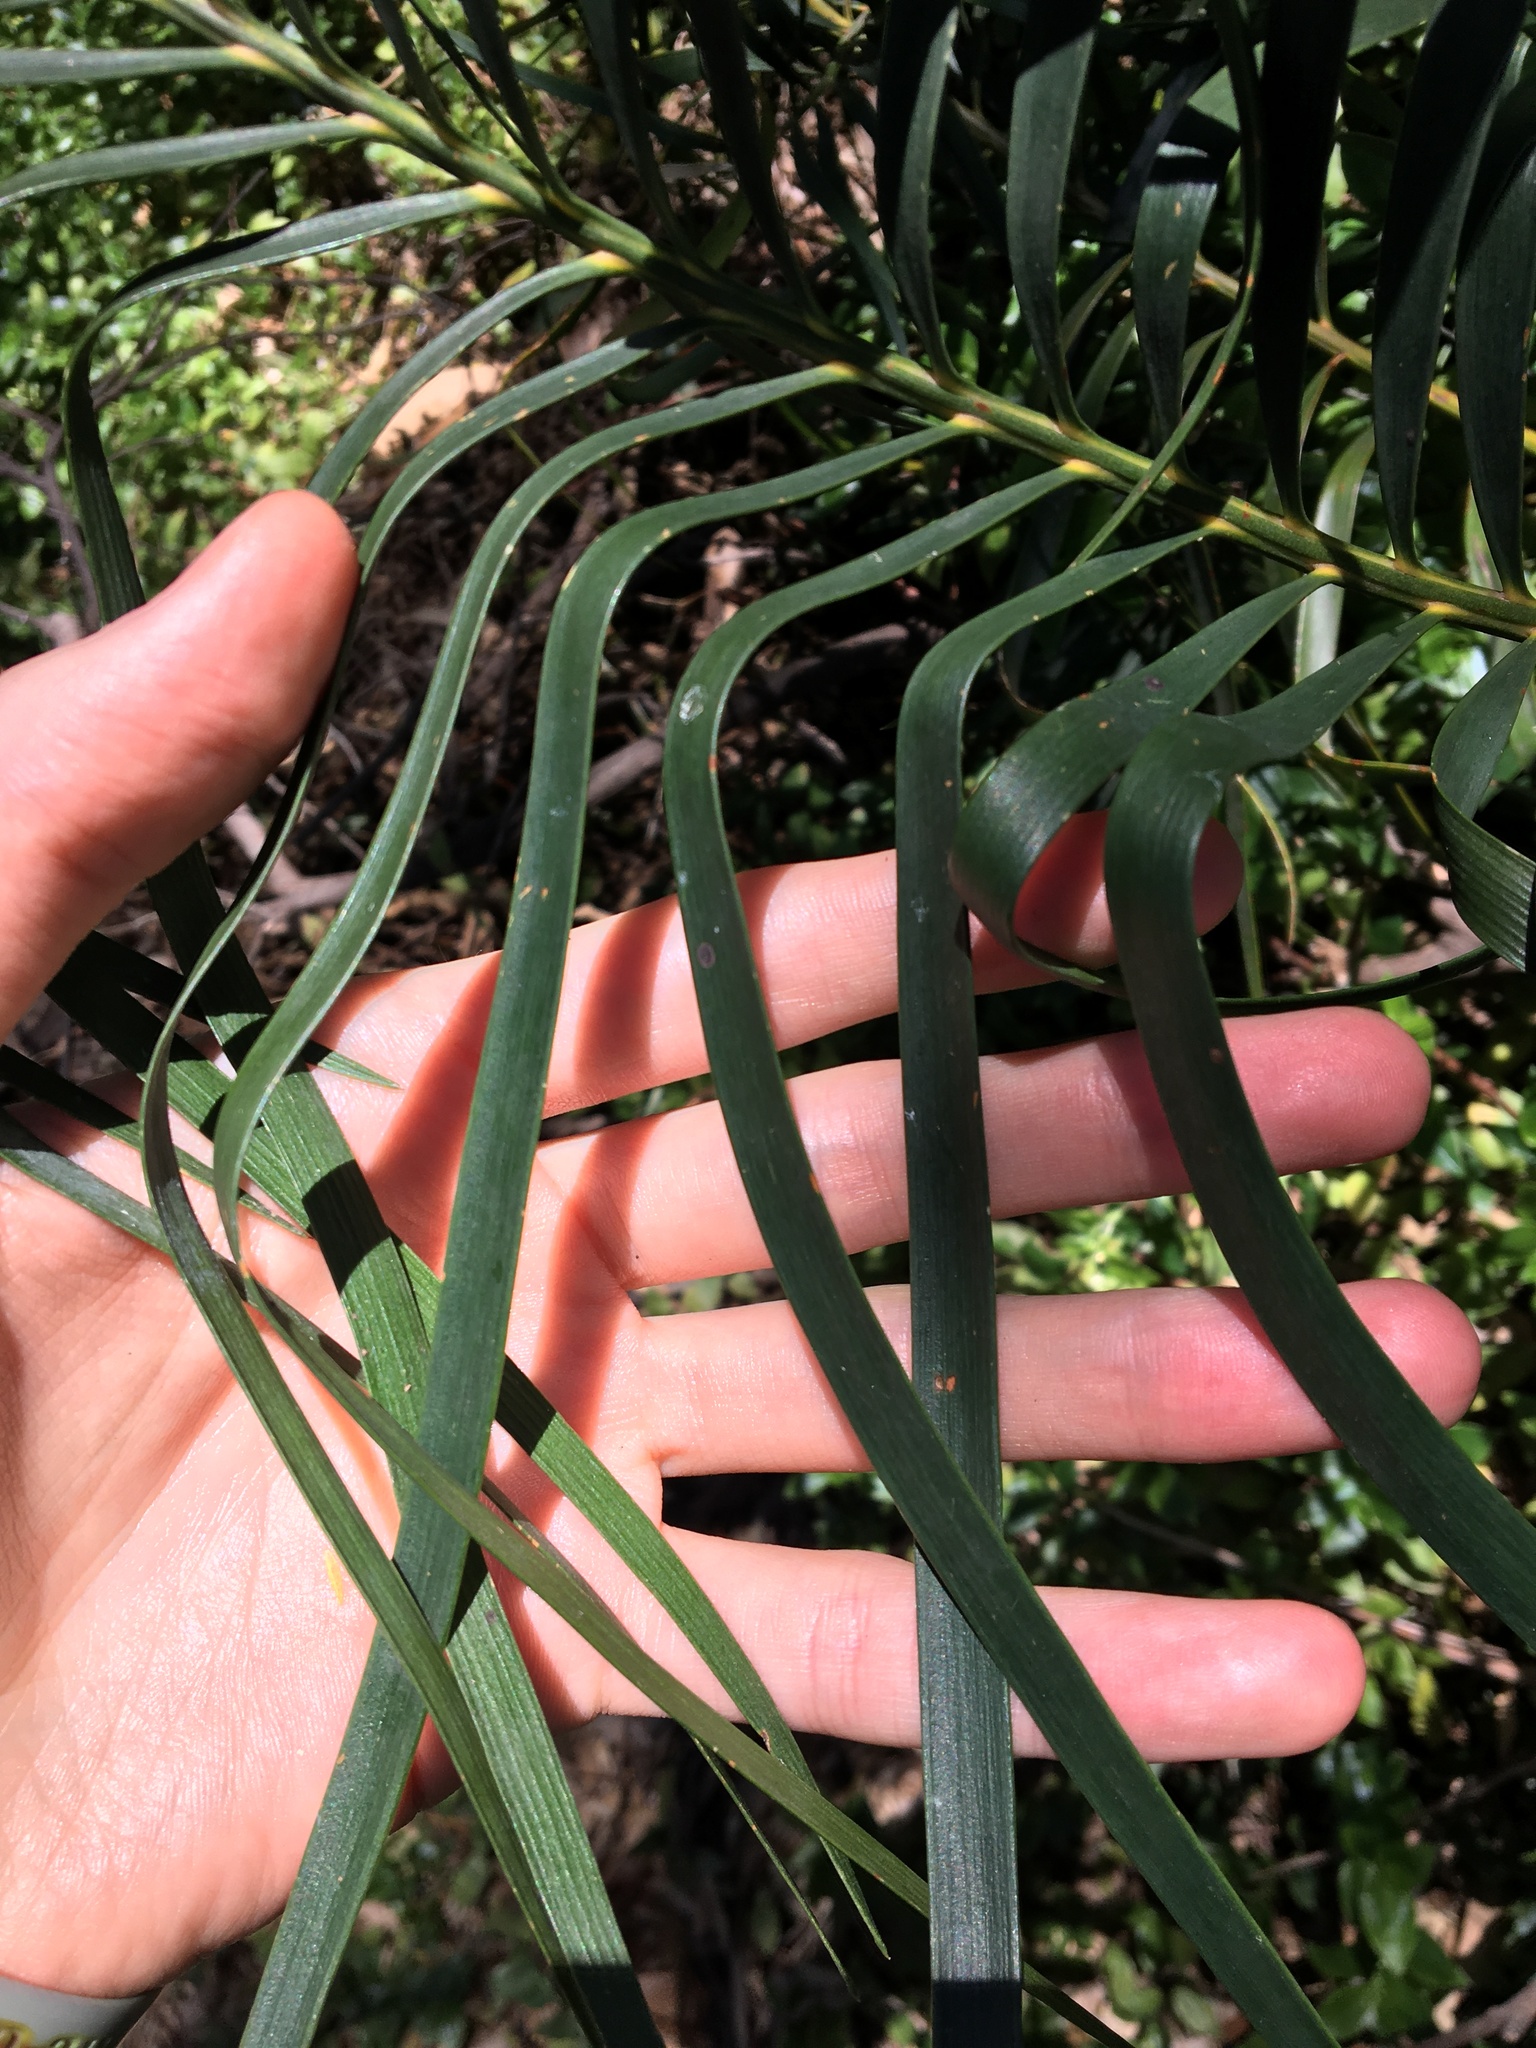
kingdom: Plantae
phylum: Tracheophyta
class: Cycadopsida
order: Cycadales
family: Zamiaceae
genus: Macrozamia
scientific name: Macrozamia spiralis
